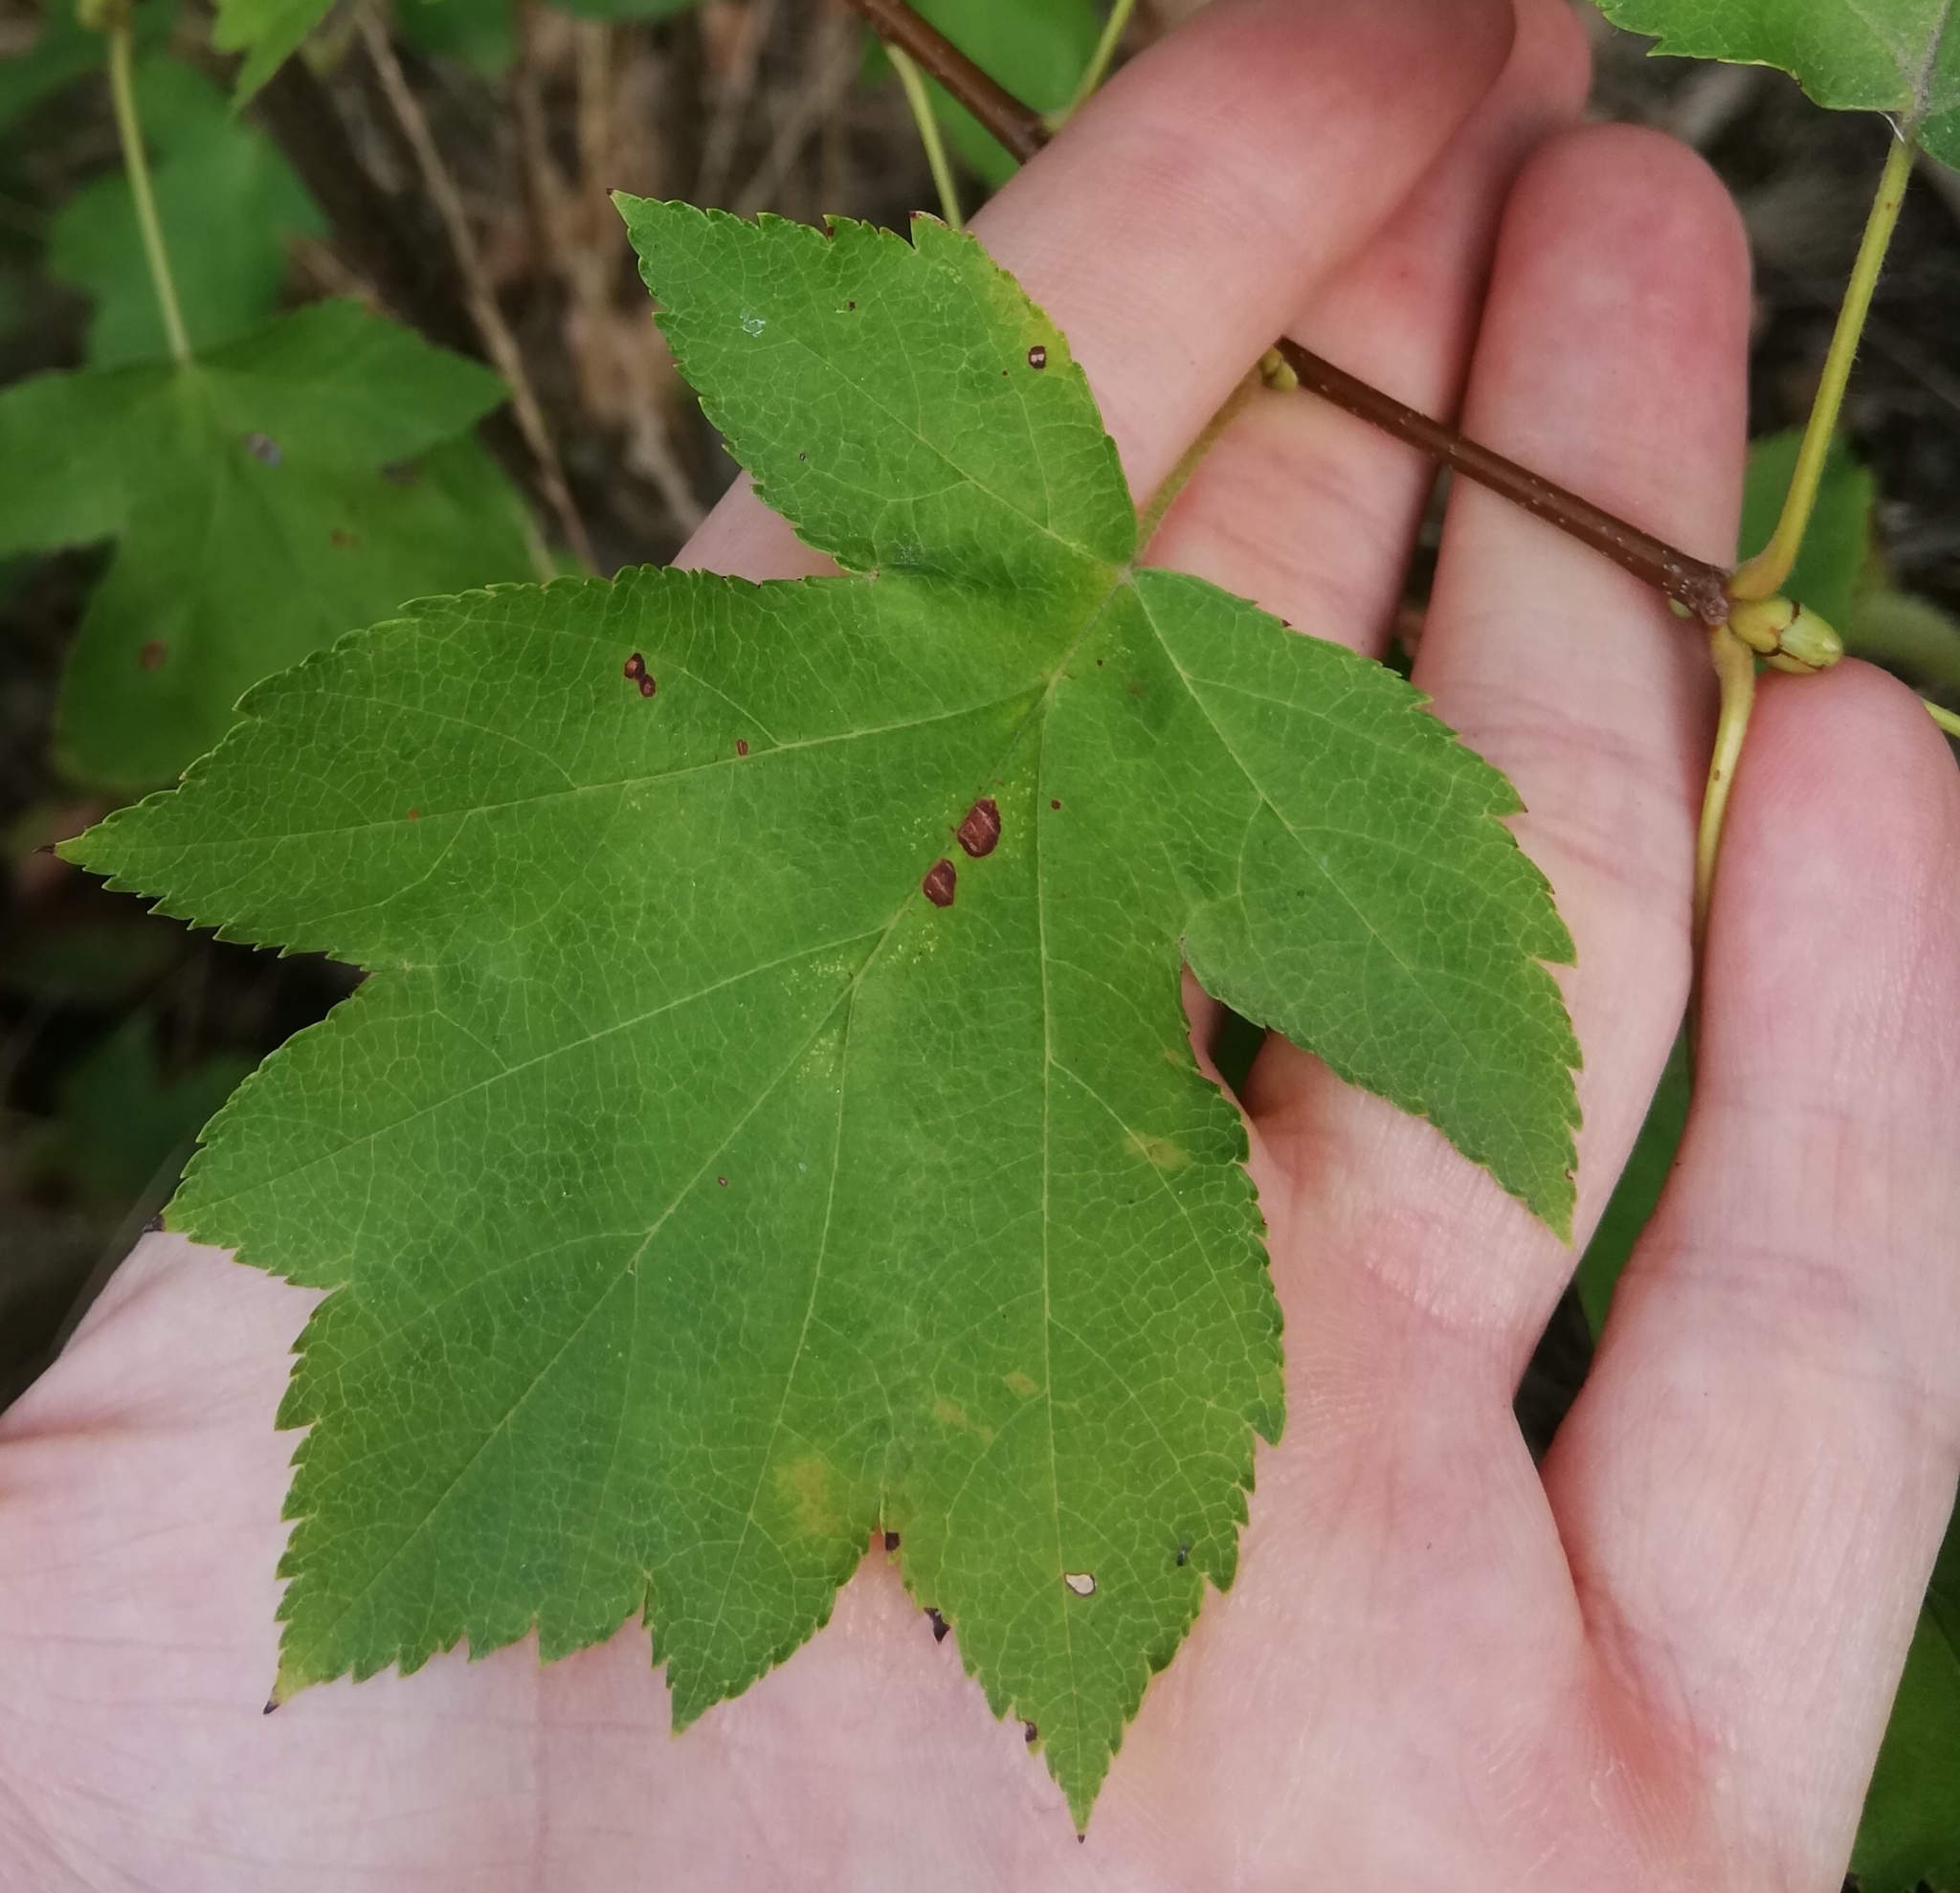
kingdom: Plantae
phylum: Tracheophyta
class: Magnoliopsida
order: Rosales
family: Rosaceae
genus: Torminalis
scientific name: Torminalis glaberrima
